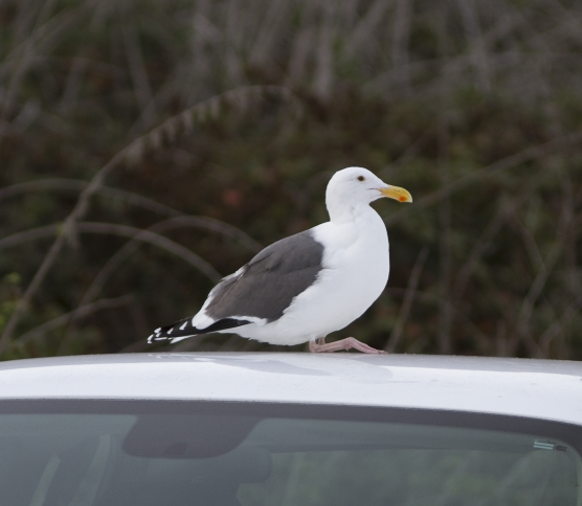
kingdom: Animalia
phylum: Chordata
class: Aves
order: Charadriiformes
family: Laridae
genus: Larus
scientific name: Larus occidentalis
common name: Western gull
